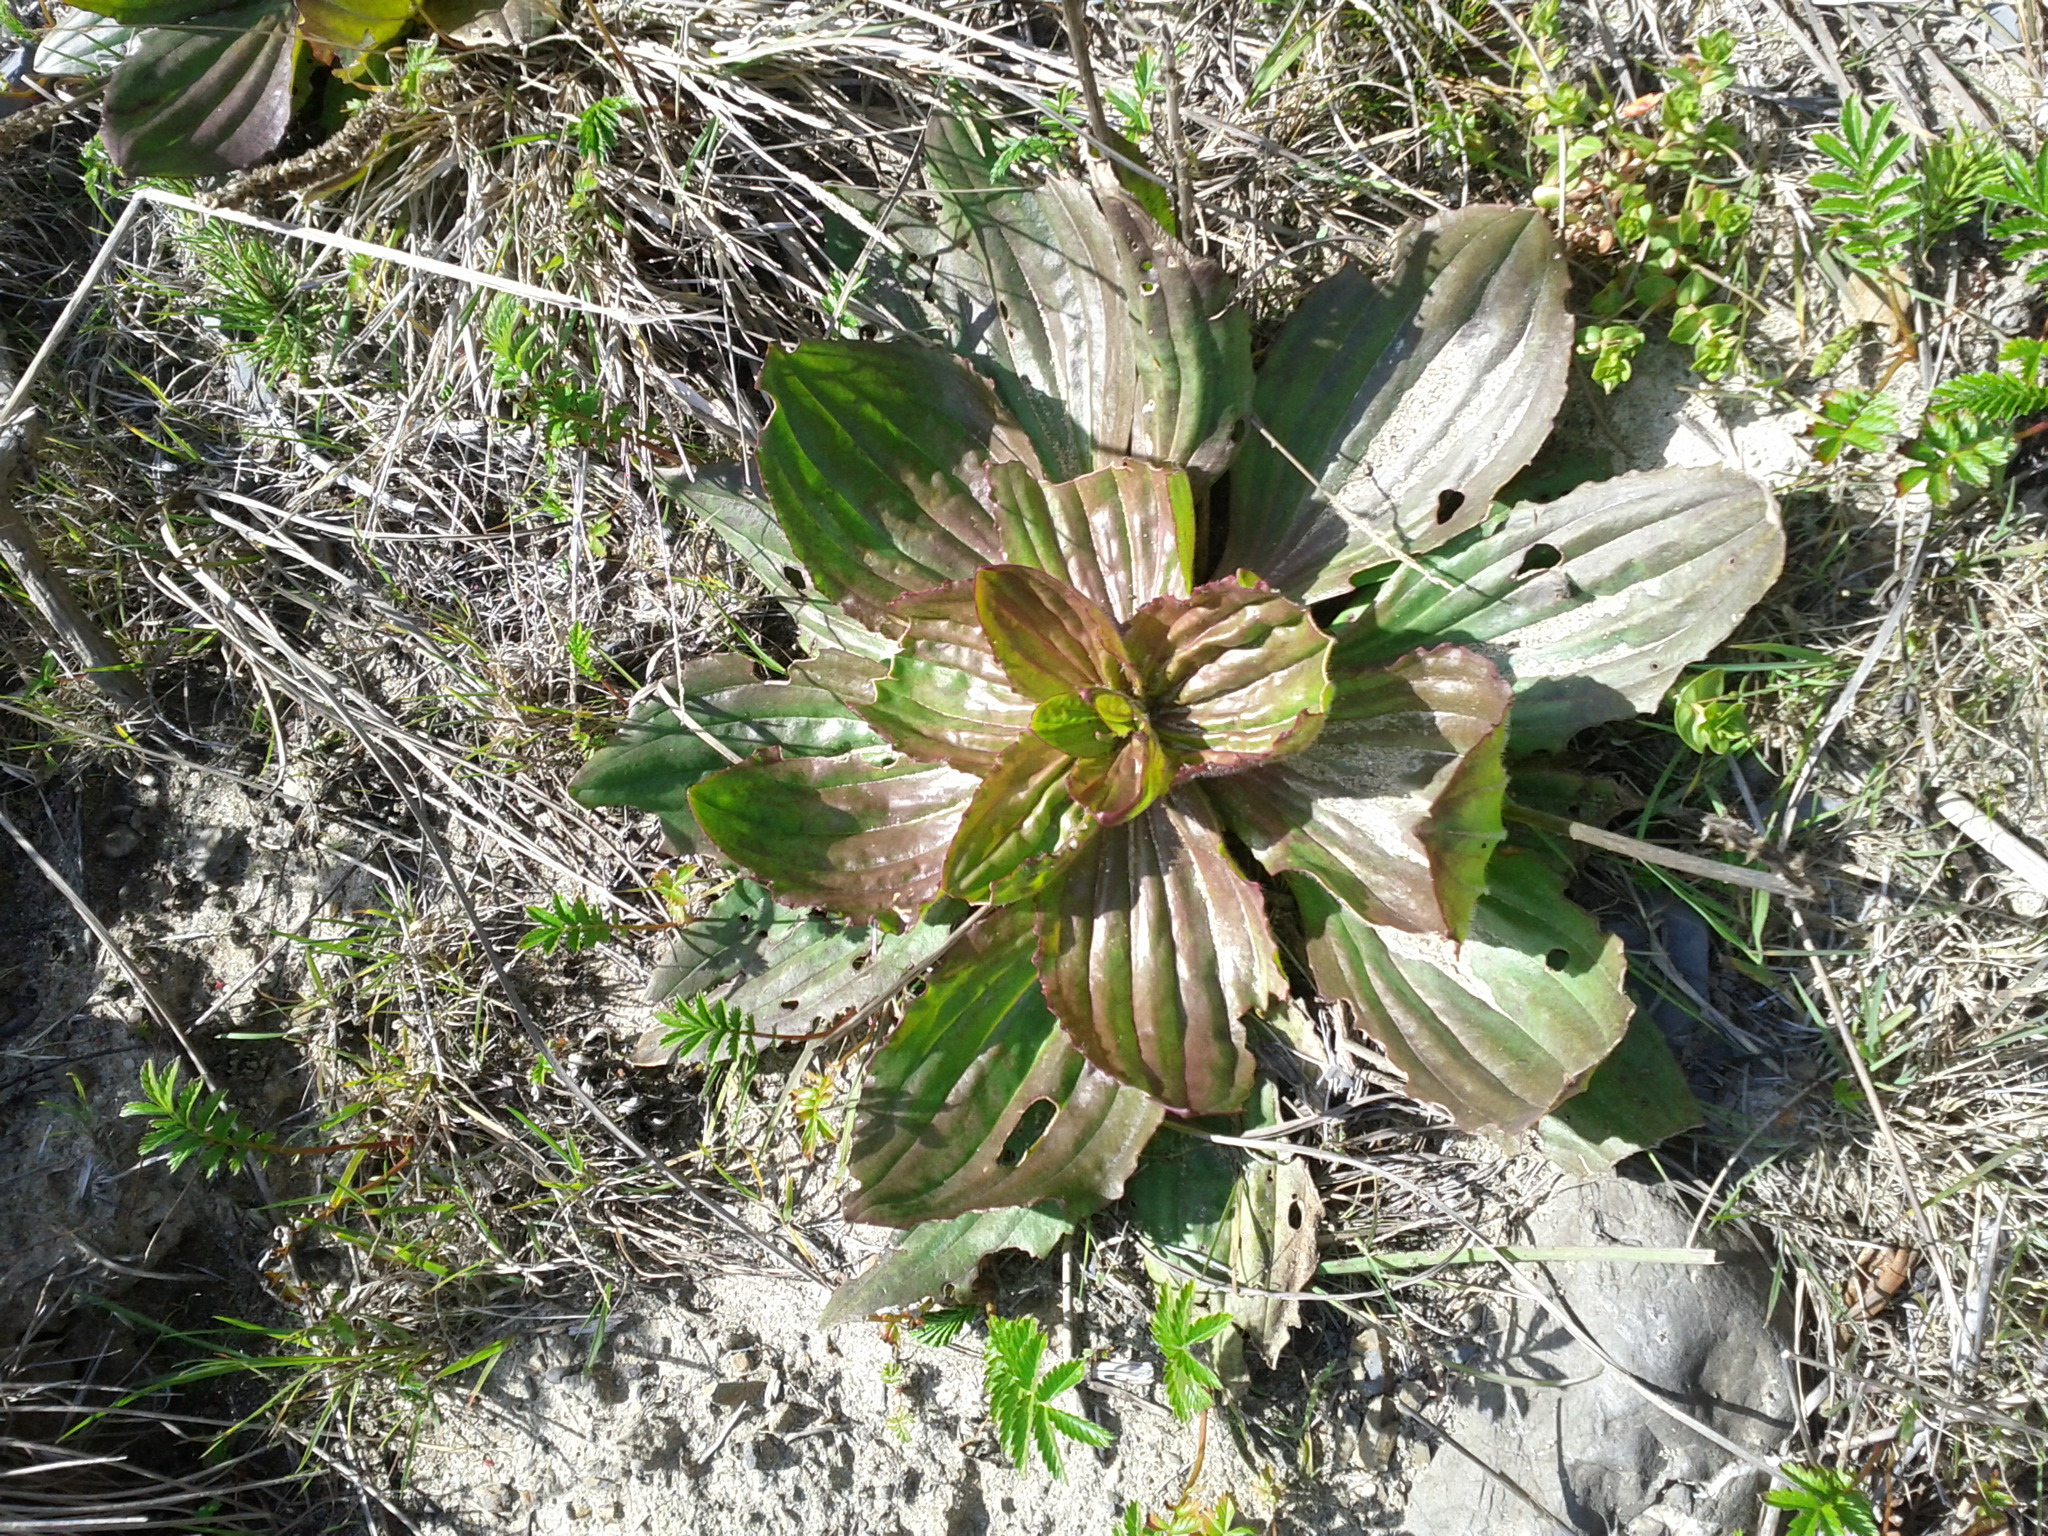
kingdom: Plantae
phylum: Tracheophyta
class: Magnoliopsida
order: Lamiales
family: Plantaginaceae
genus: Plantago
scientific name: Plantago subnuda
